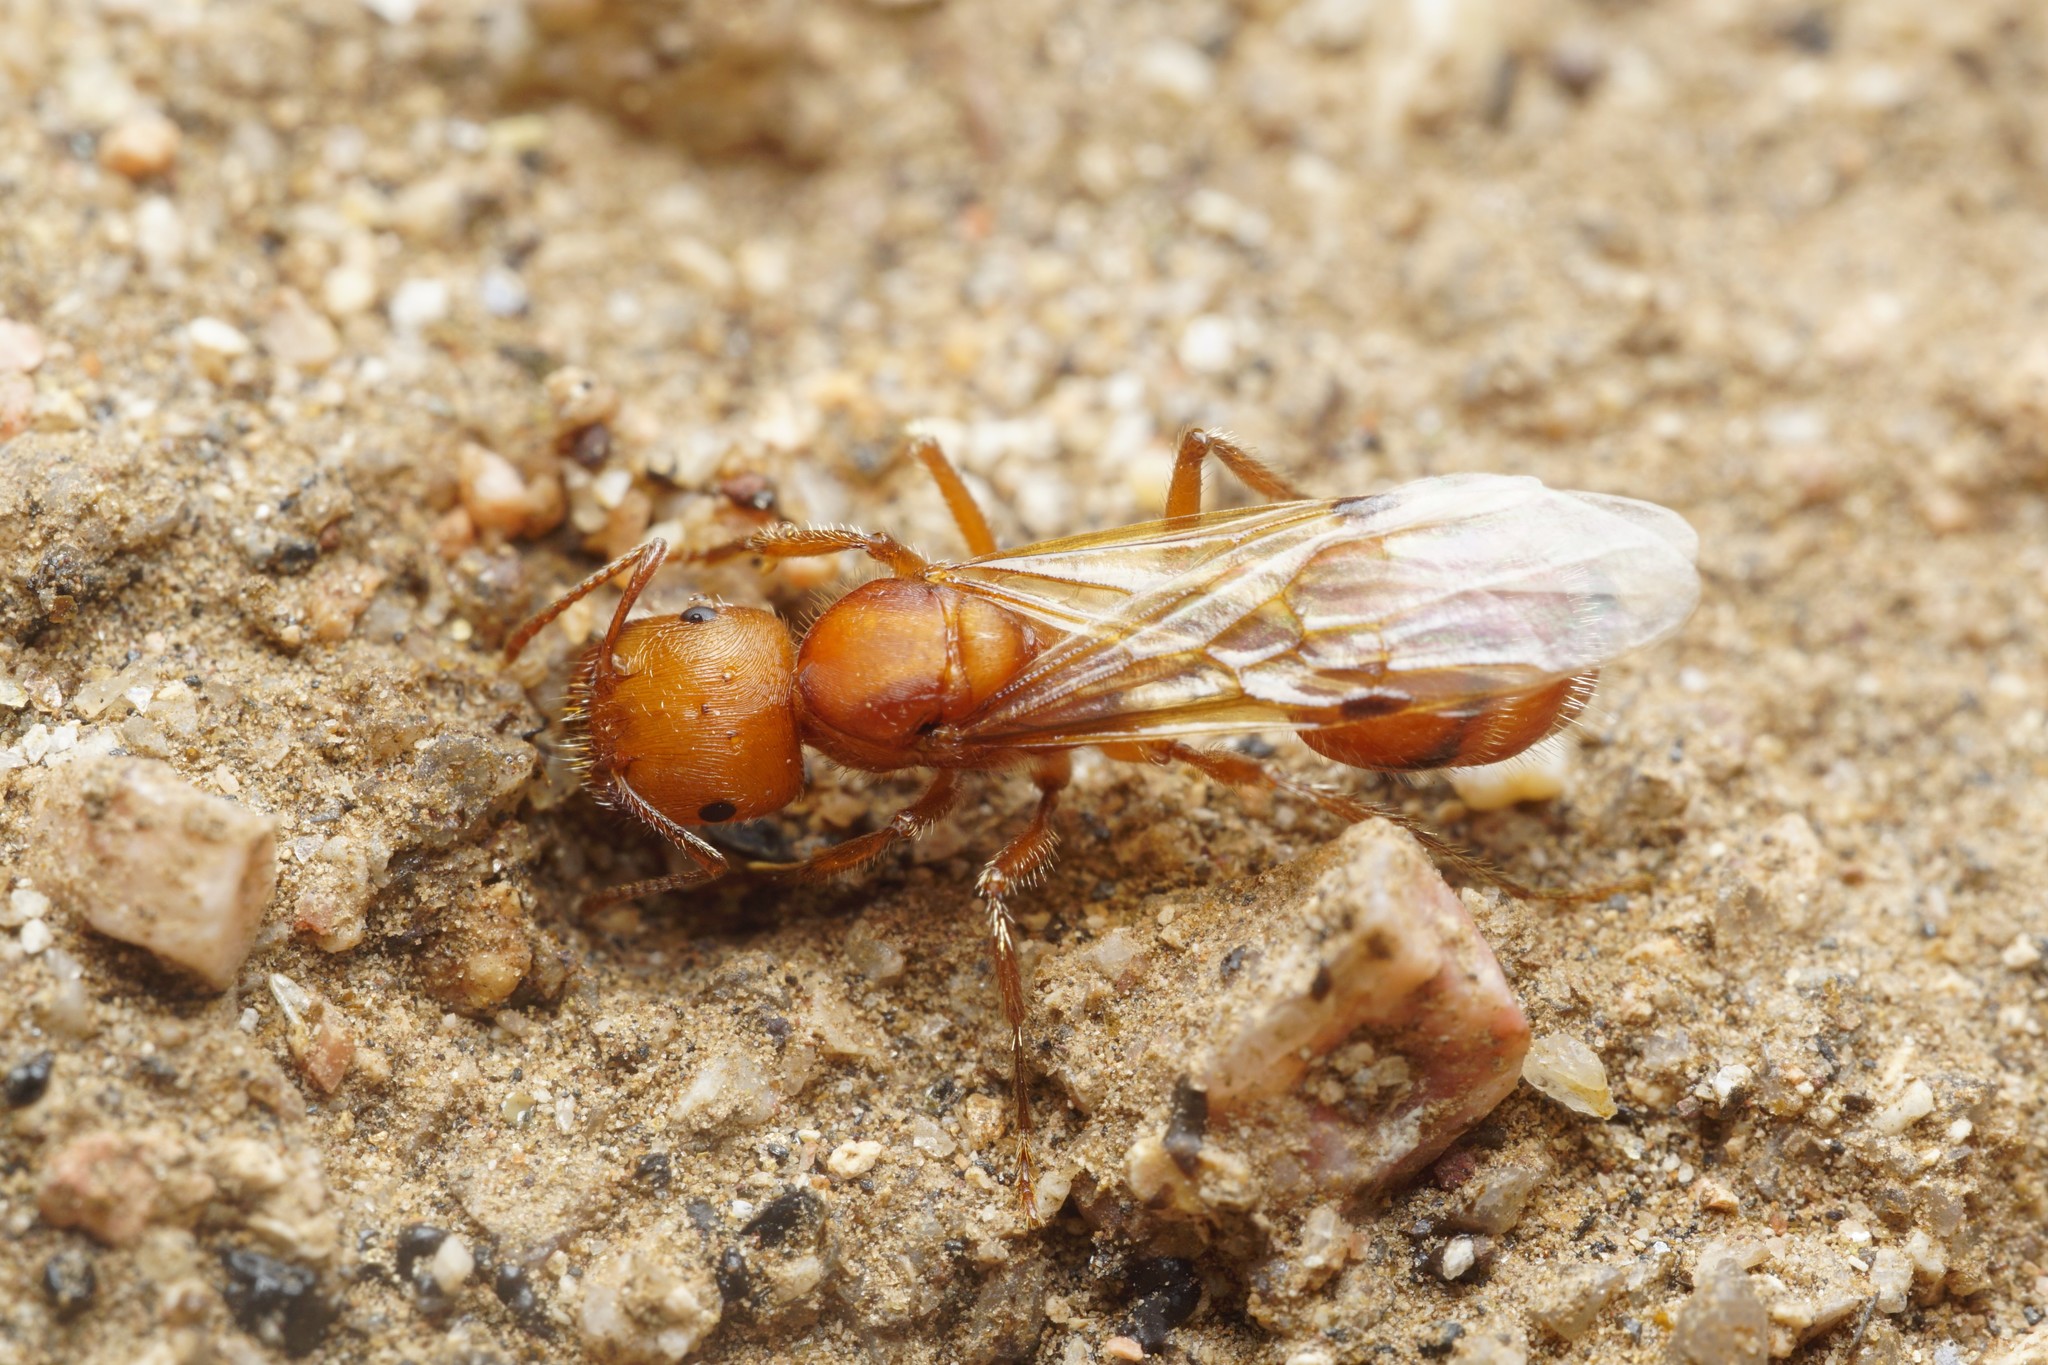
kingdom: Animalia
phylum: Arthropoda
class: Insecta
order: Hymenoptera
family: Formicidae
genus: Pogonomyrmex
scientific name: Pogonomyrmex maricopa
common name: Maricopa harvester ant
